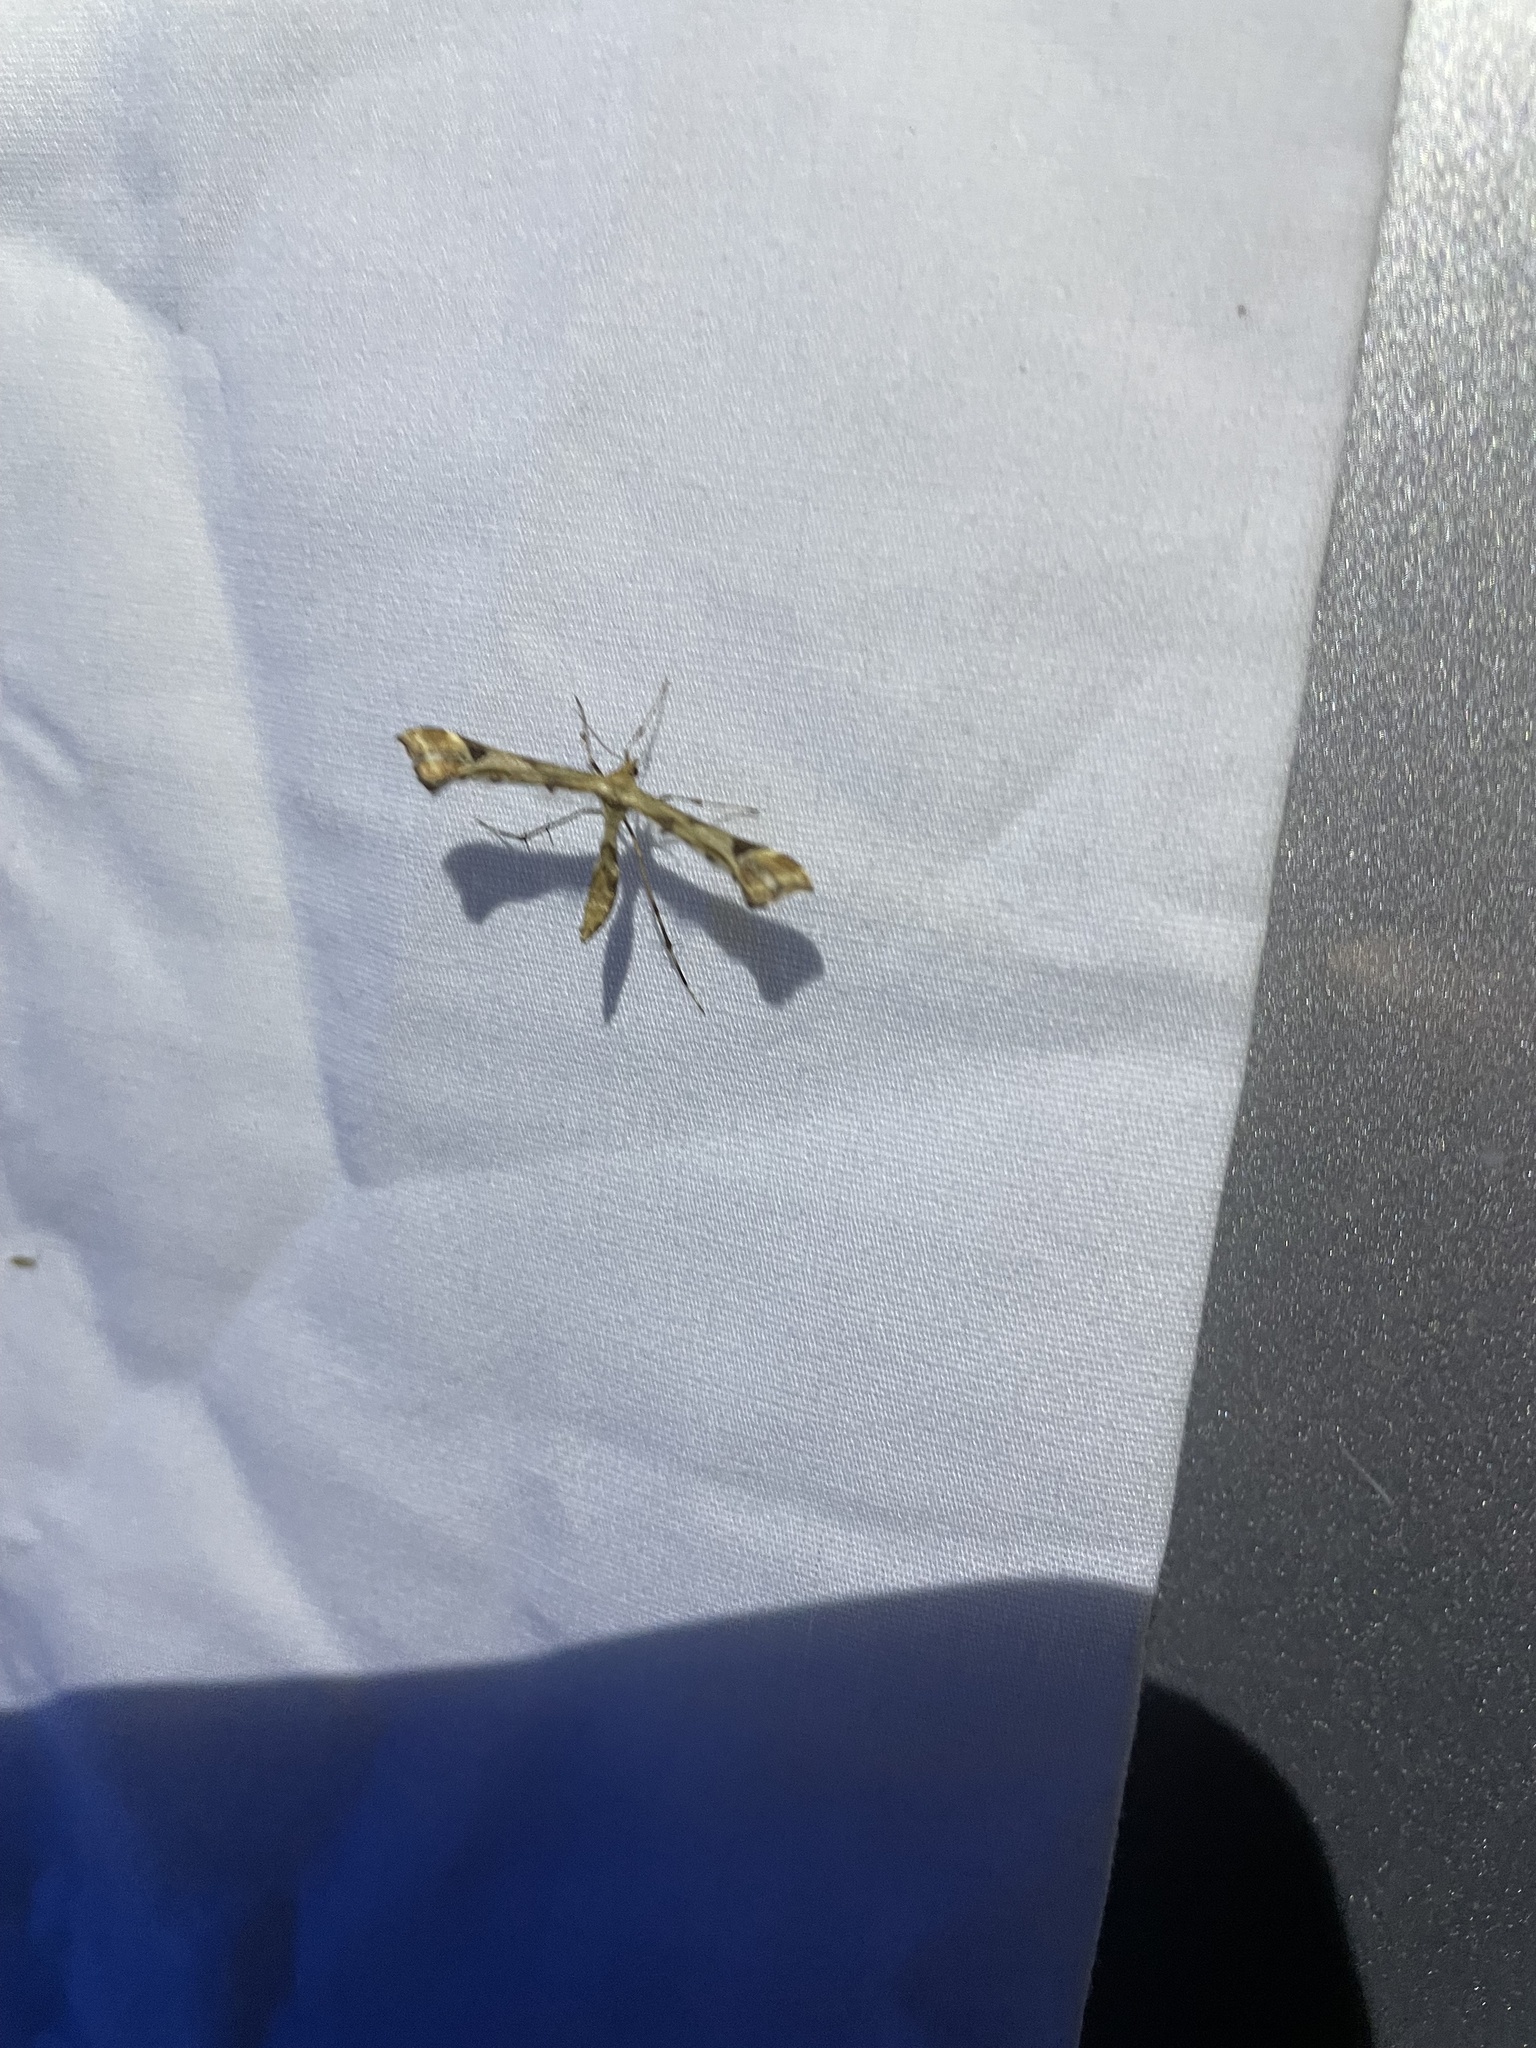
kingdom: Animalia
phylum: Arthropoda
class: Insecta
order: Lepidoptera
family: Pterophoridae
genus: Platyptilia
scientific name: Platyptilia carduidactylus
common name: Artichoke plume moth
